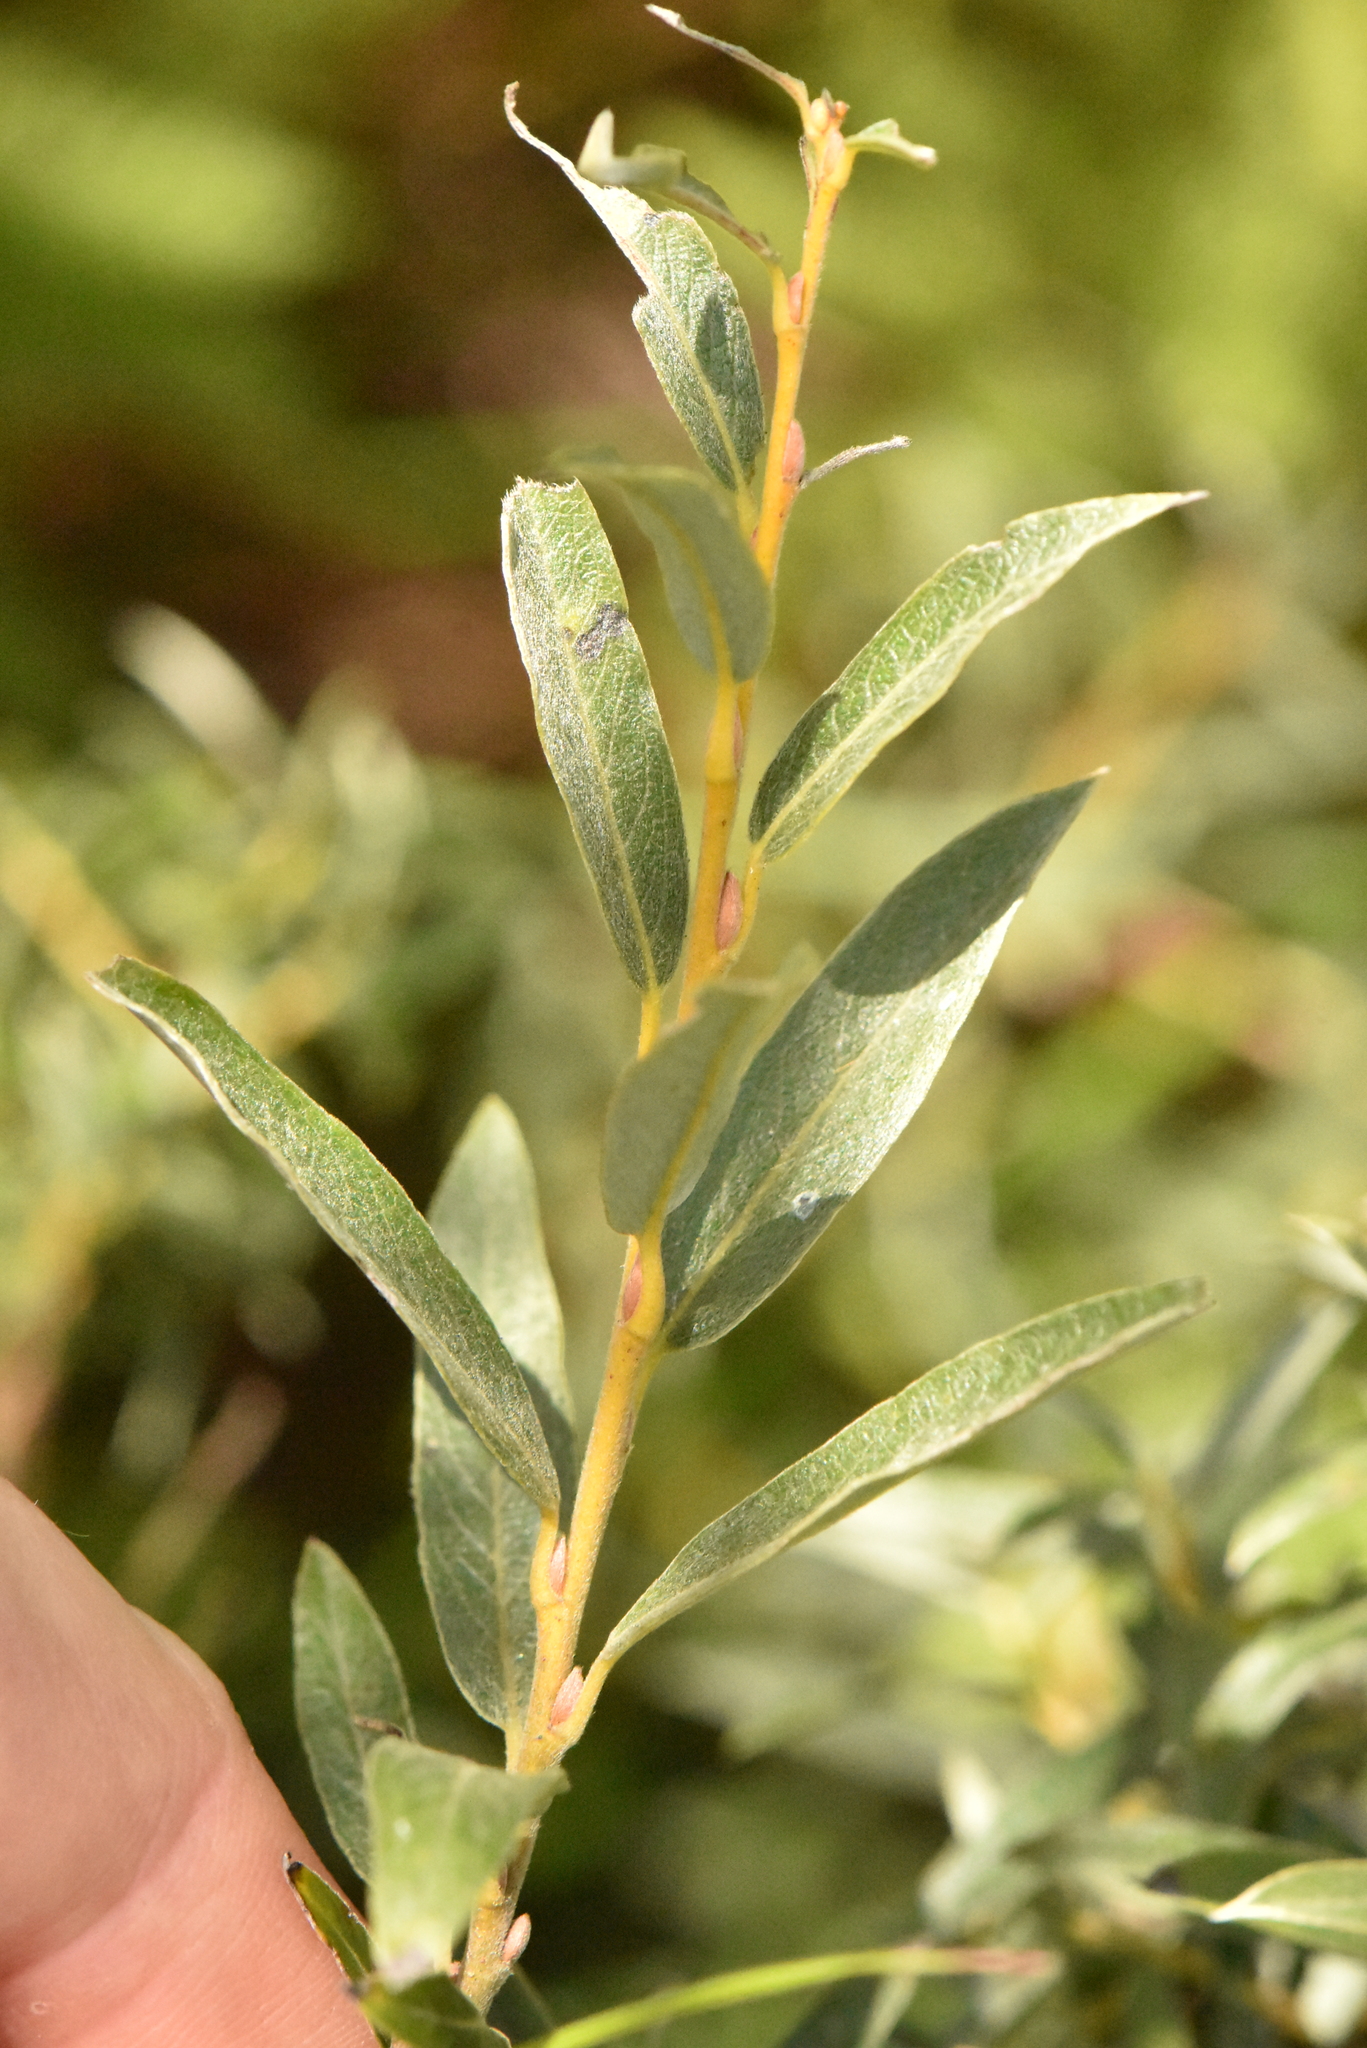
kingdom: Plantae
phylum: Tracheophyta
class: Magnoliopsida
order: Malpighiales
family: Salicaceae
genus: Salix
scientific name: Salix rosmarinifolia
